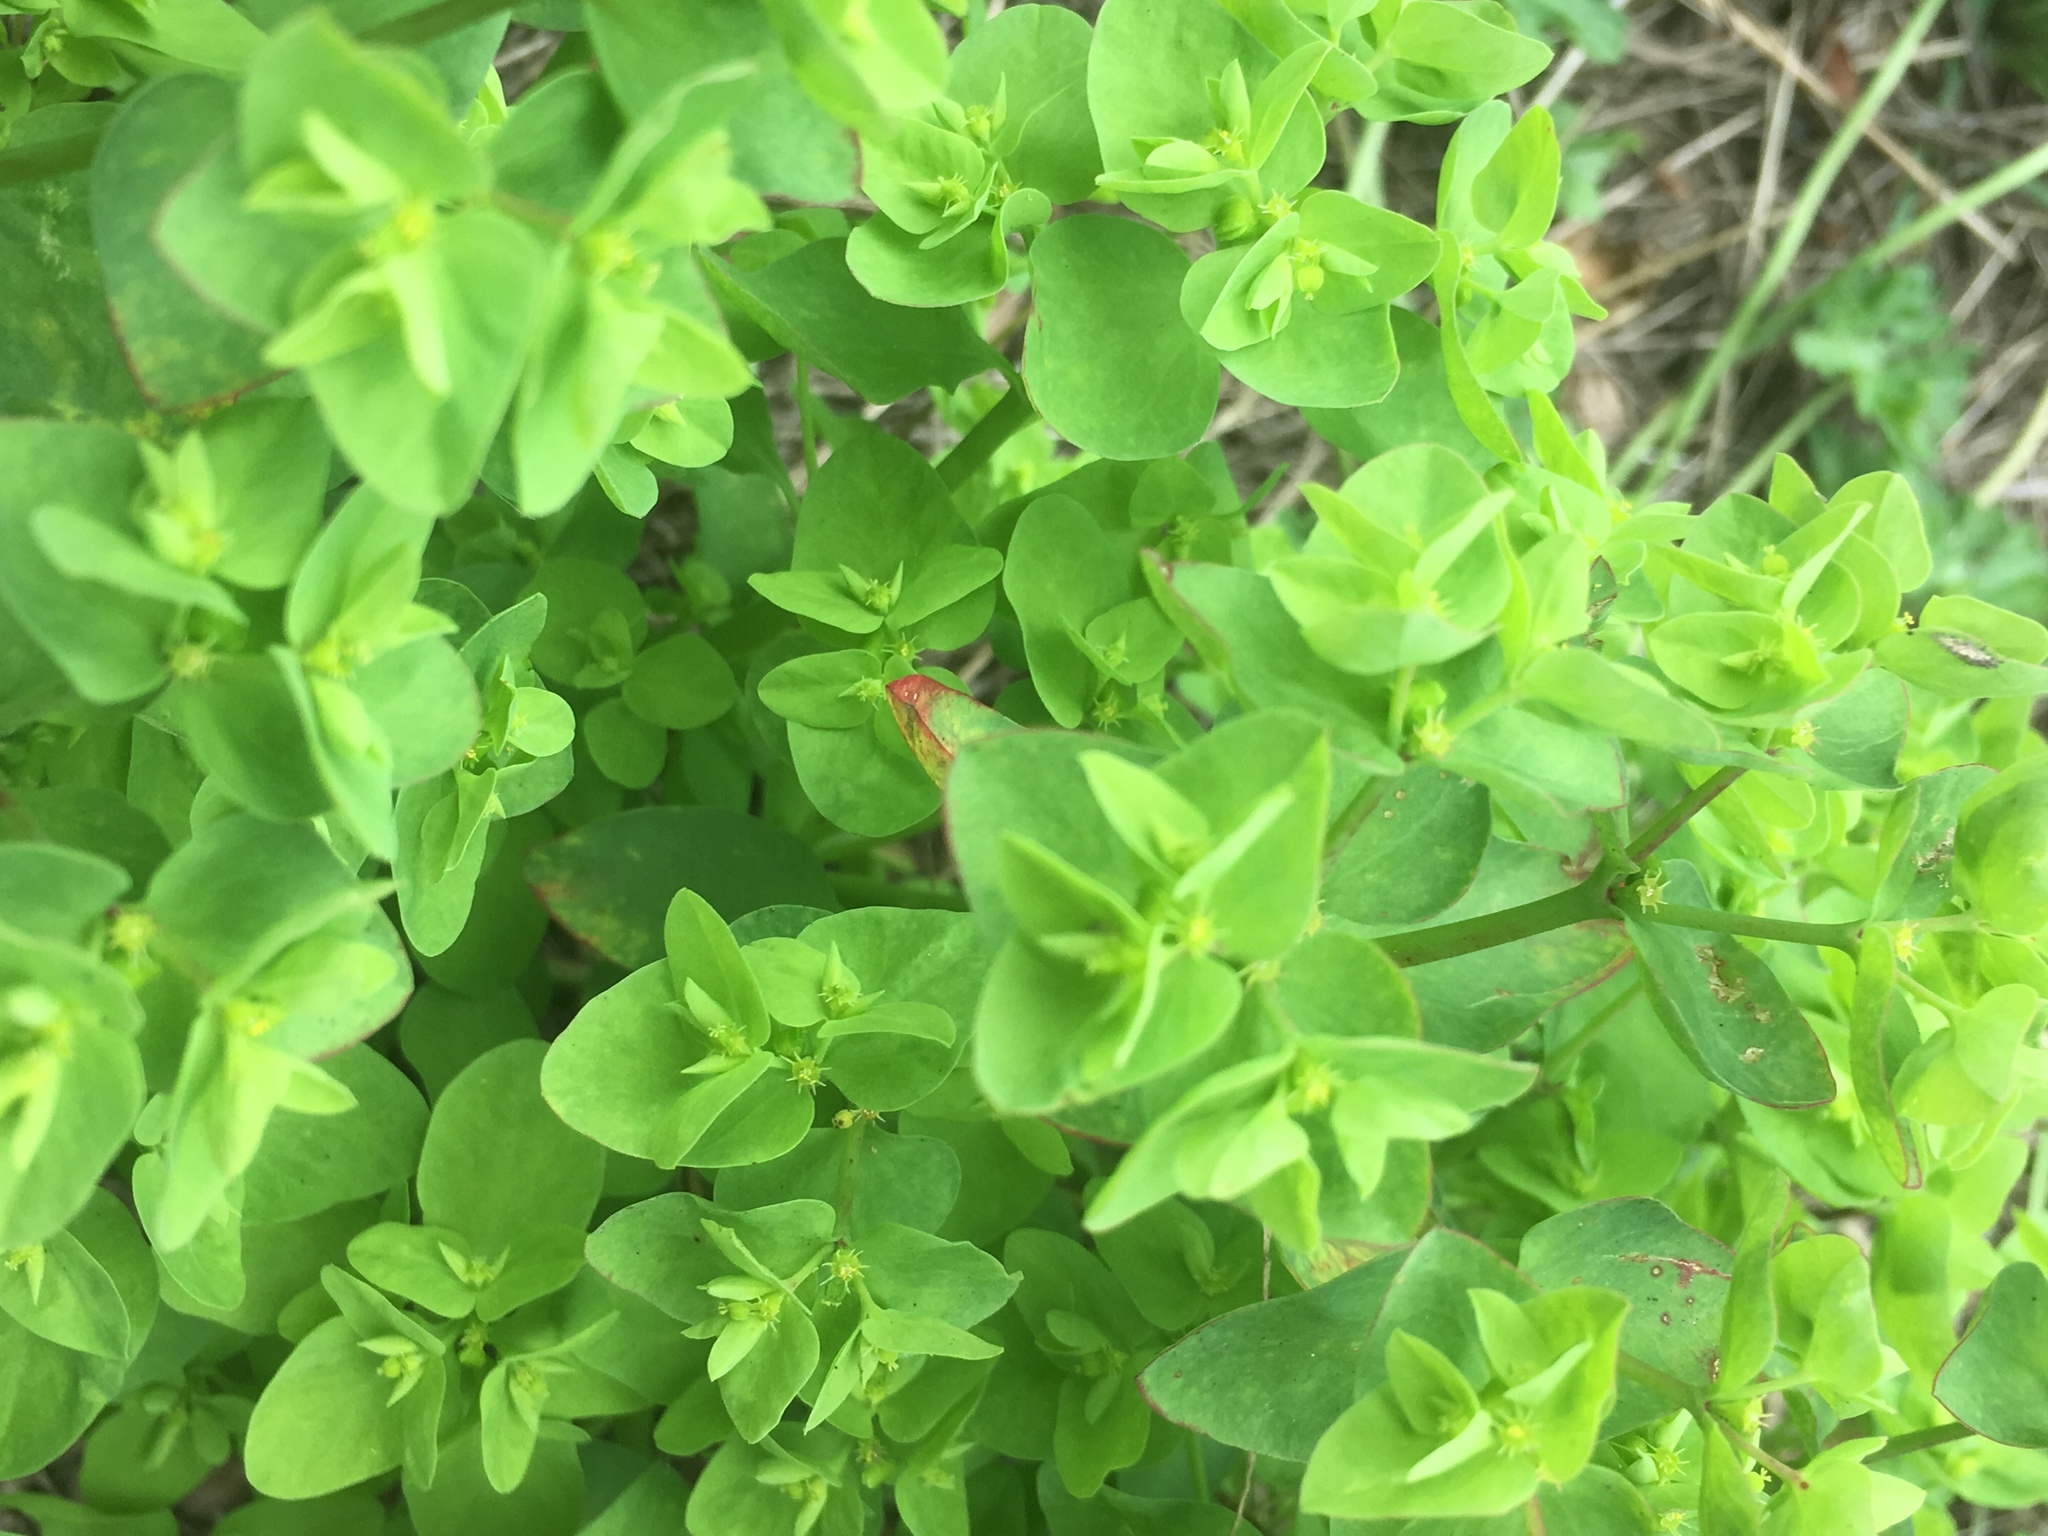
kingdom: Plantae
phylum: Tracheophyta
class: Magnoliopsida
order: Malpighiales
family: Euphorbiaceae
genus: Euphorbia
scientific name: Euphorbia peplus
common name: Petty spurge
